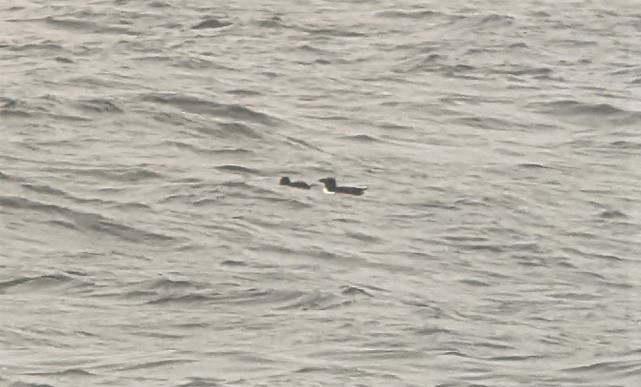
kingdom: Animalia
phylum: Chordata
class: Aves
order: Charadriiformes
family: Alcidae
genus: Alca
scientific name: Alca torda
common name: Razorbill
